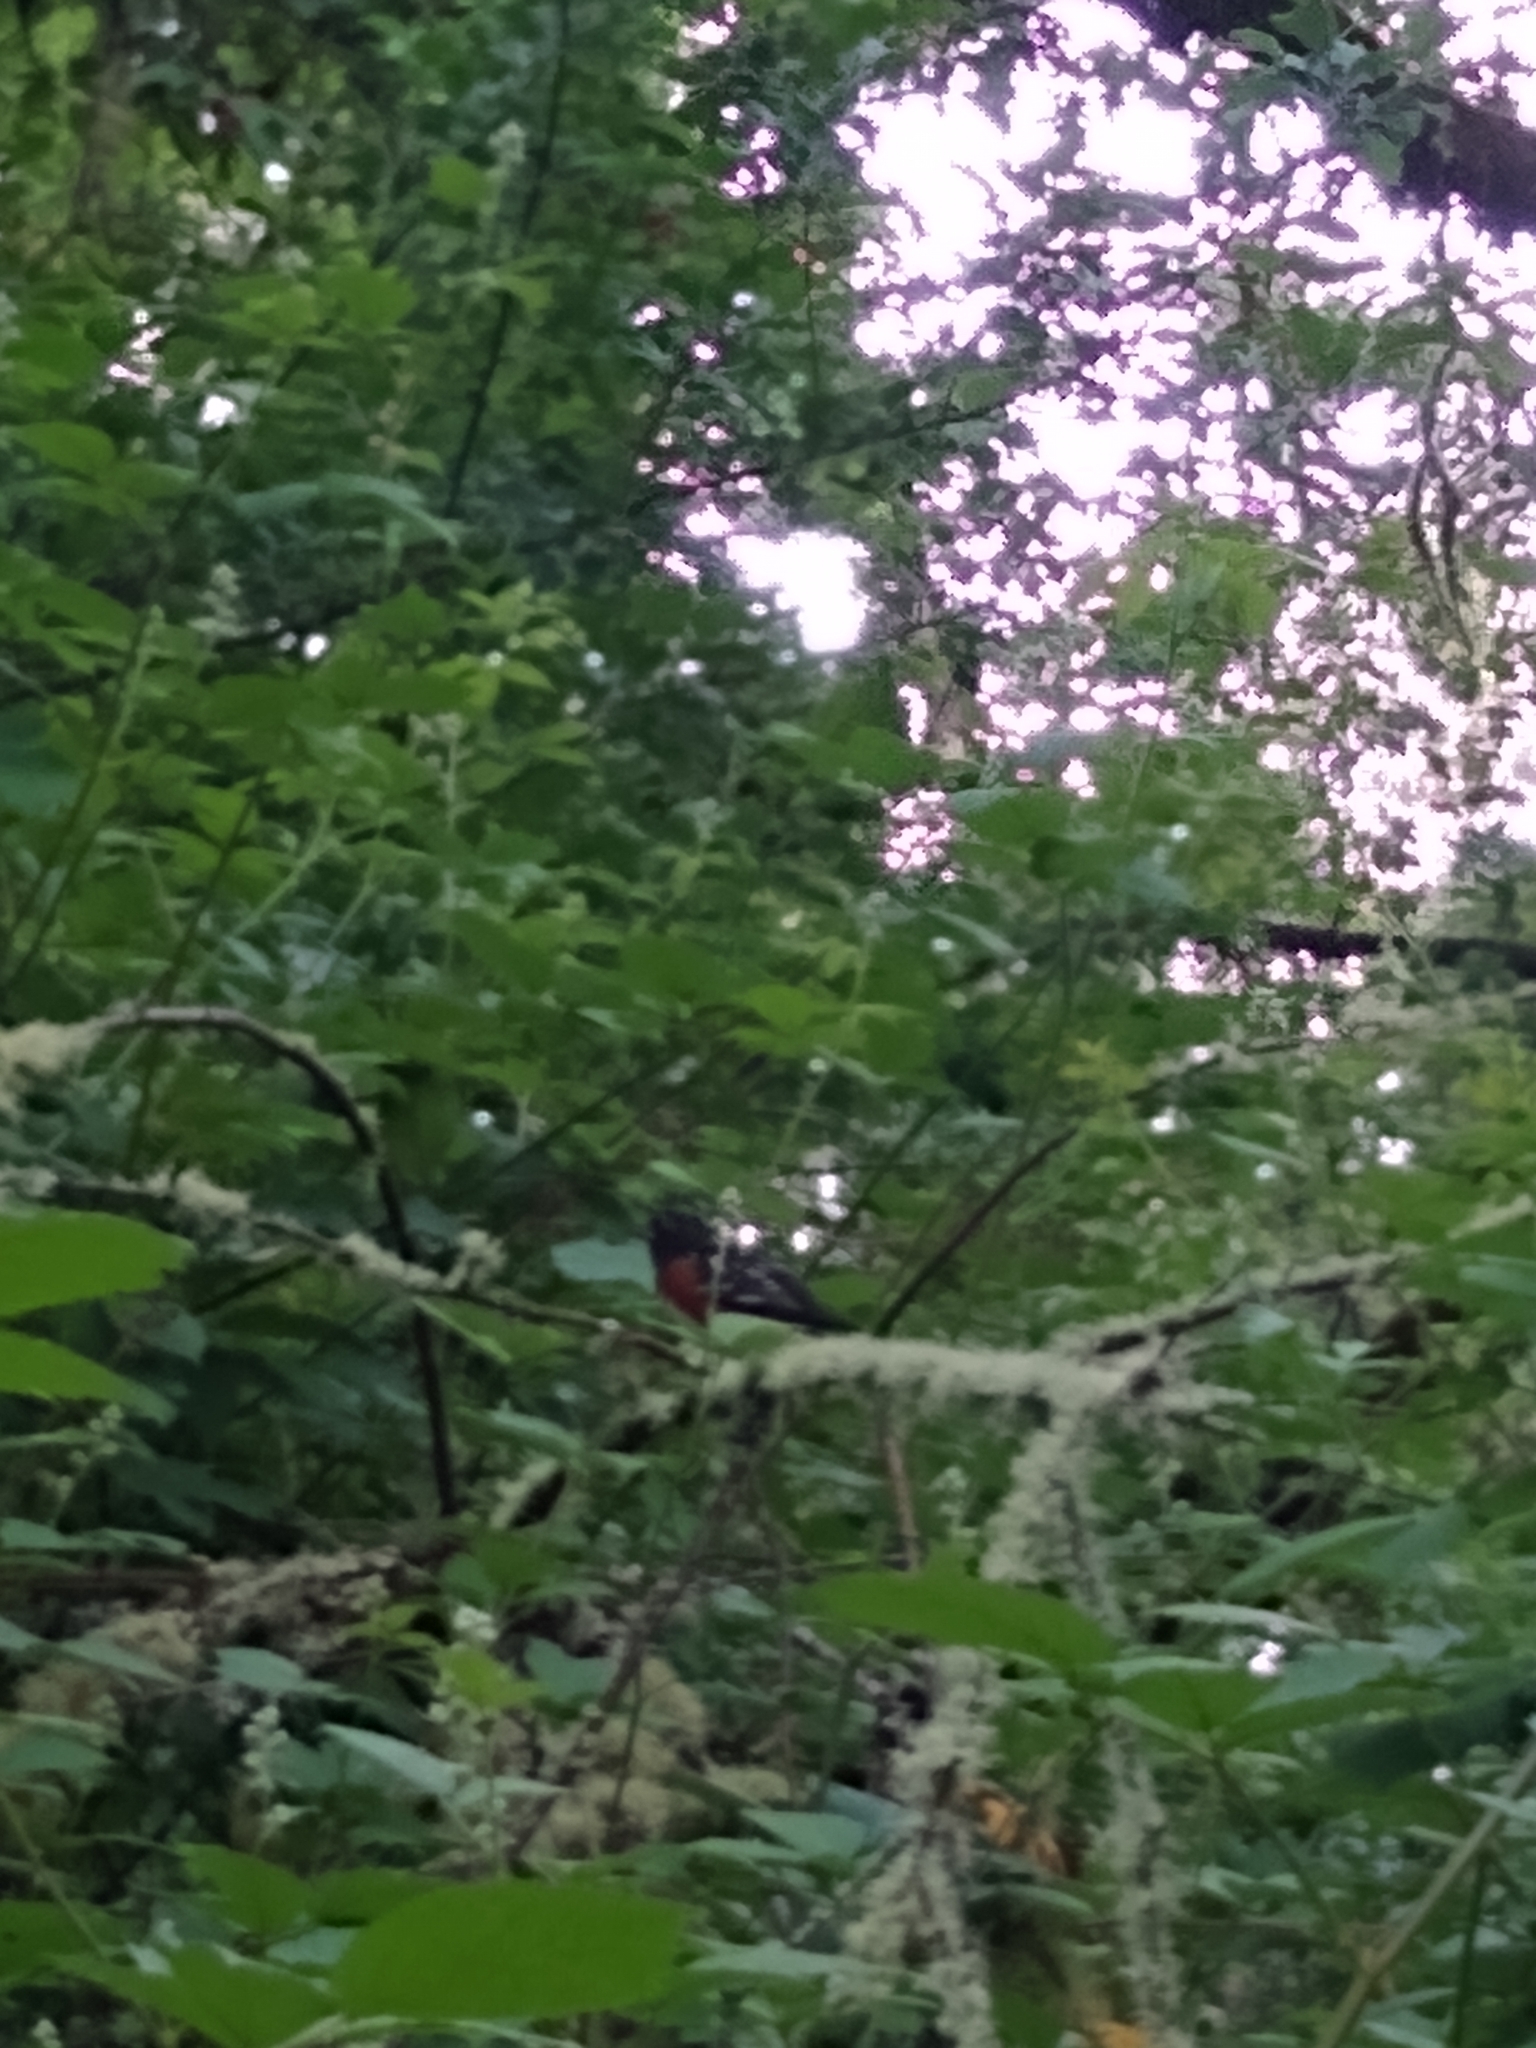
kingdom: Animalia
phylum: Chordata
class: Aves
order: Passeriformes
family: Passerellidae
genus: Pipilo
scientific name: Pipilo maculatus
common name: Spotted towhee
